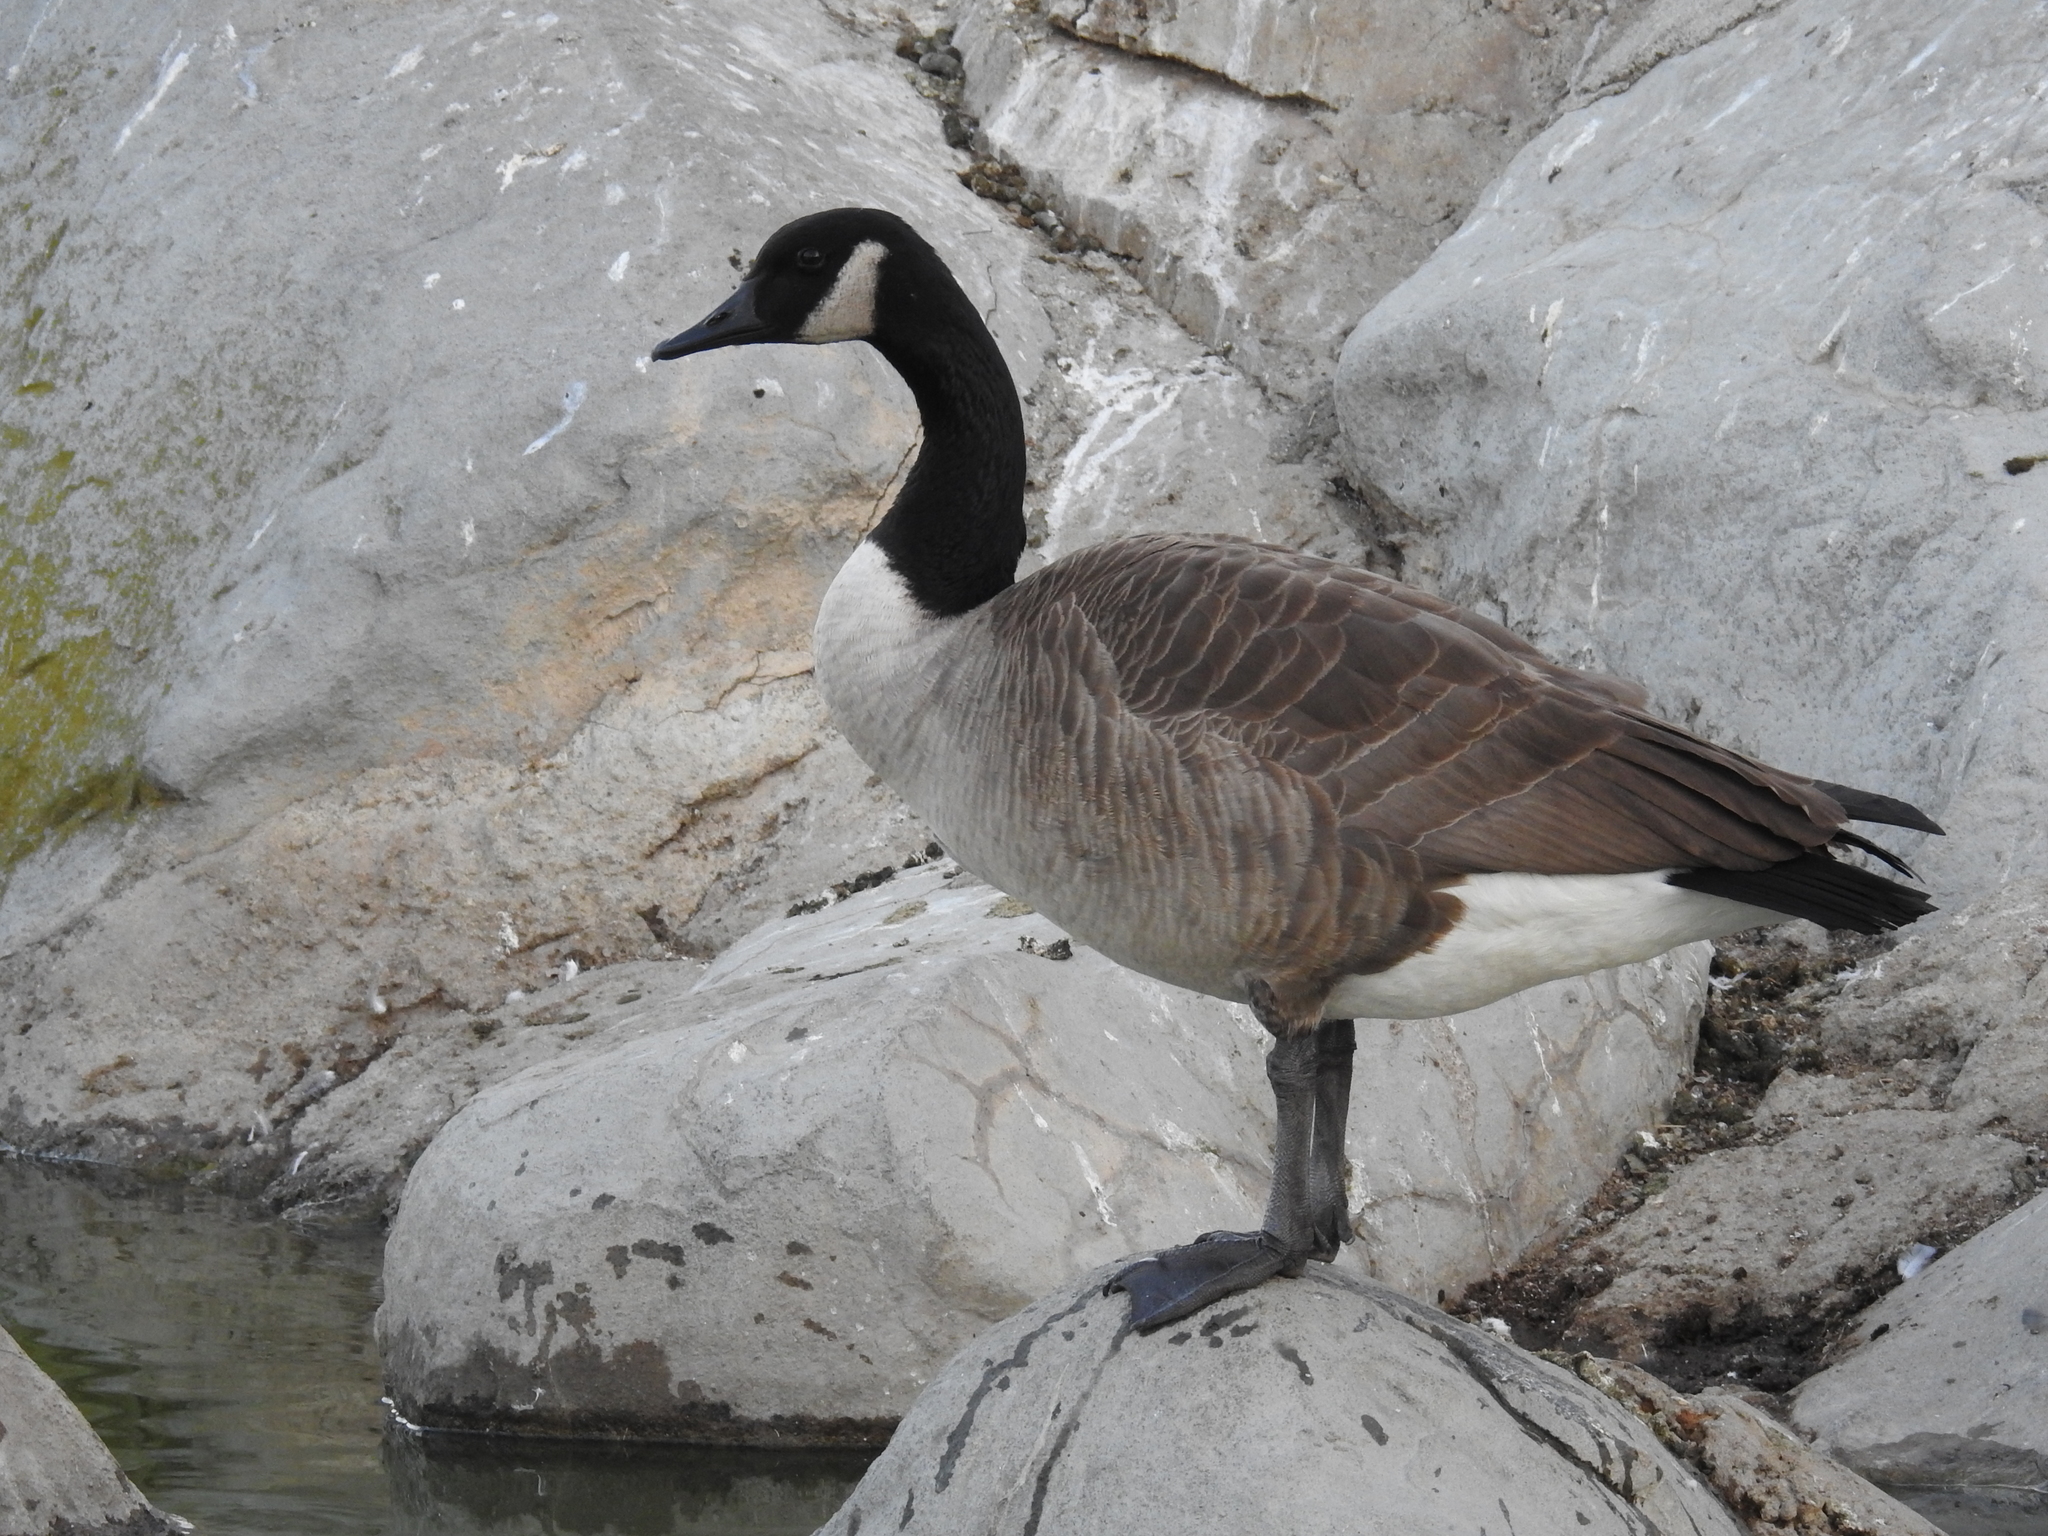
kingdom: Animalia
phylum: Chordata
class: Aves
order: Anseriformes
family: Anatidae
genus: Branta
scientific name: Branta canadensis
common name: Canada goose
